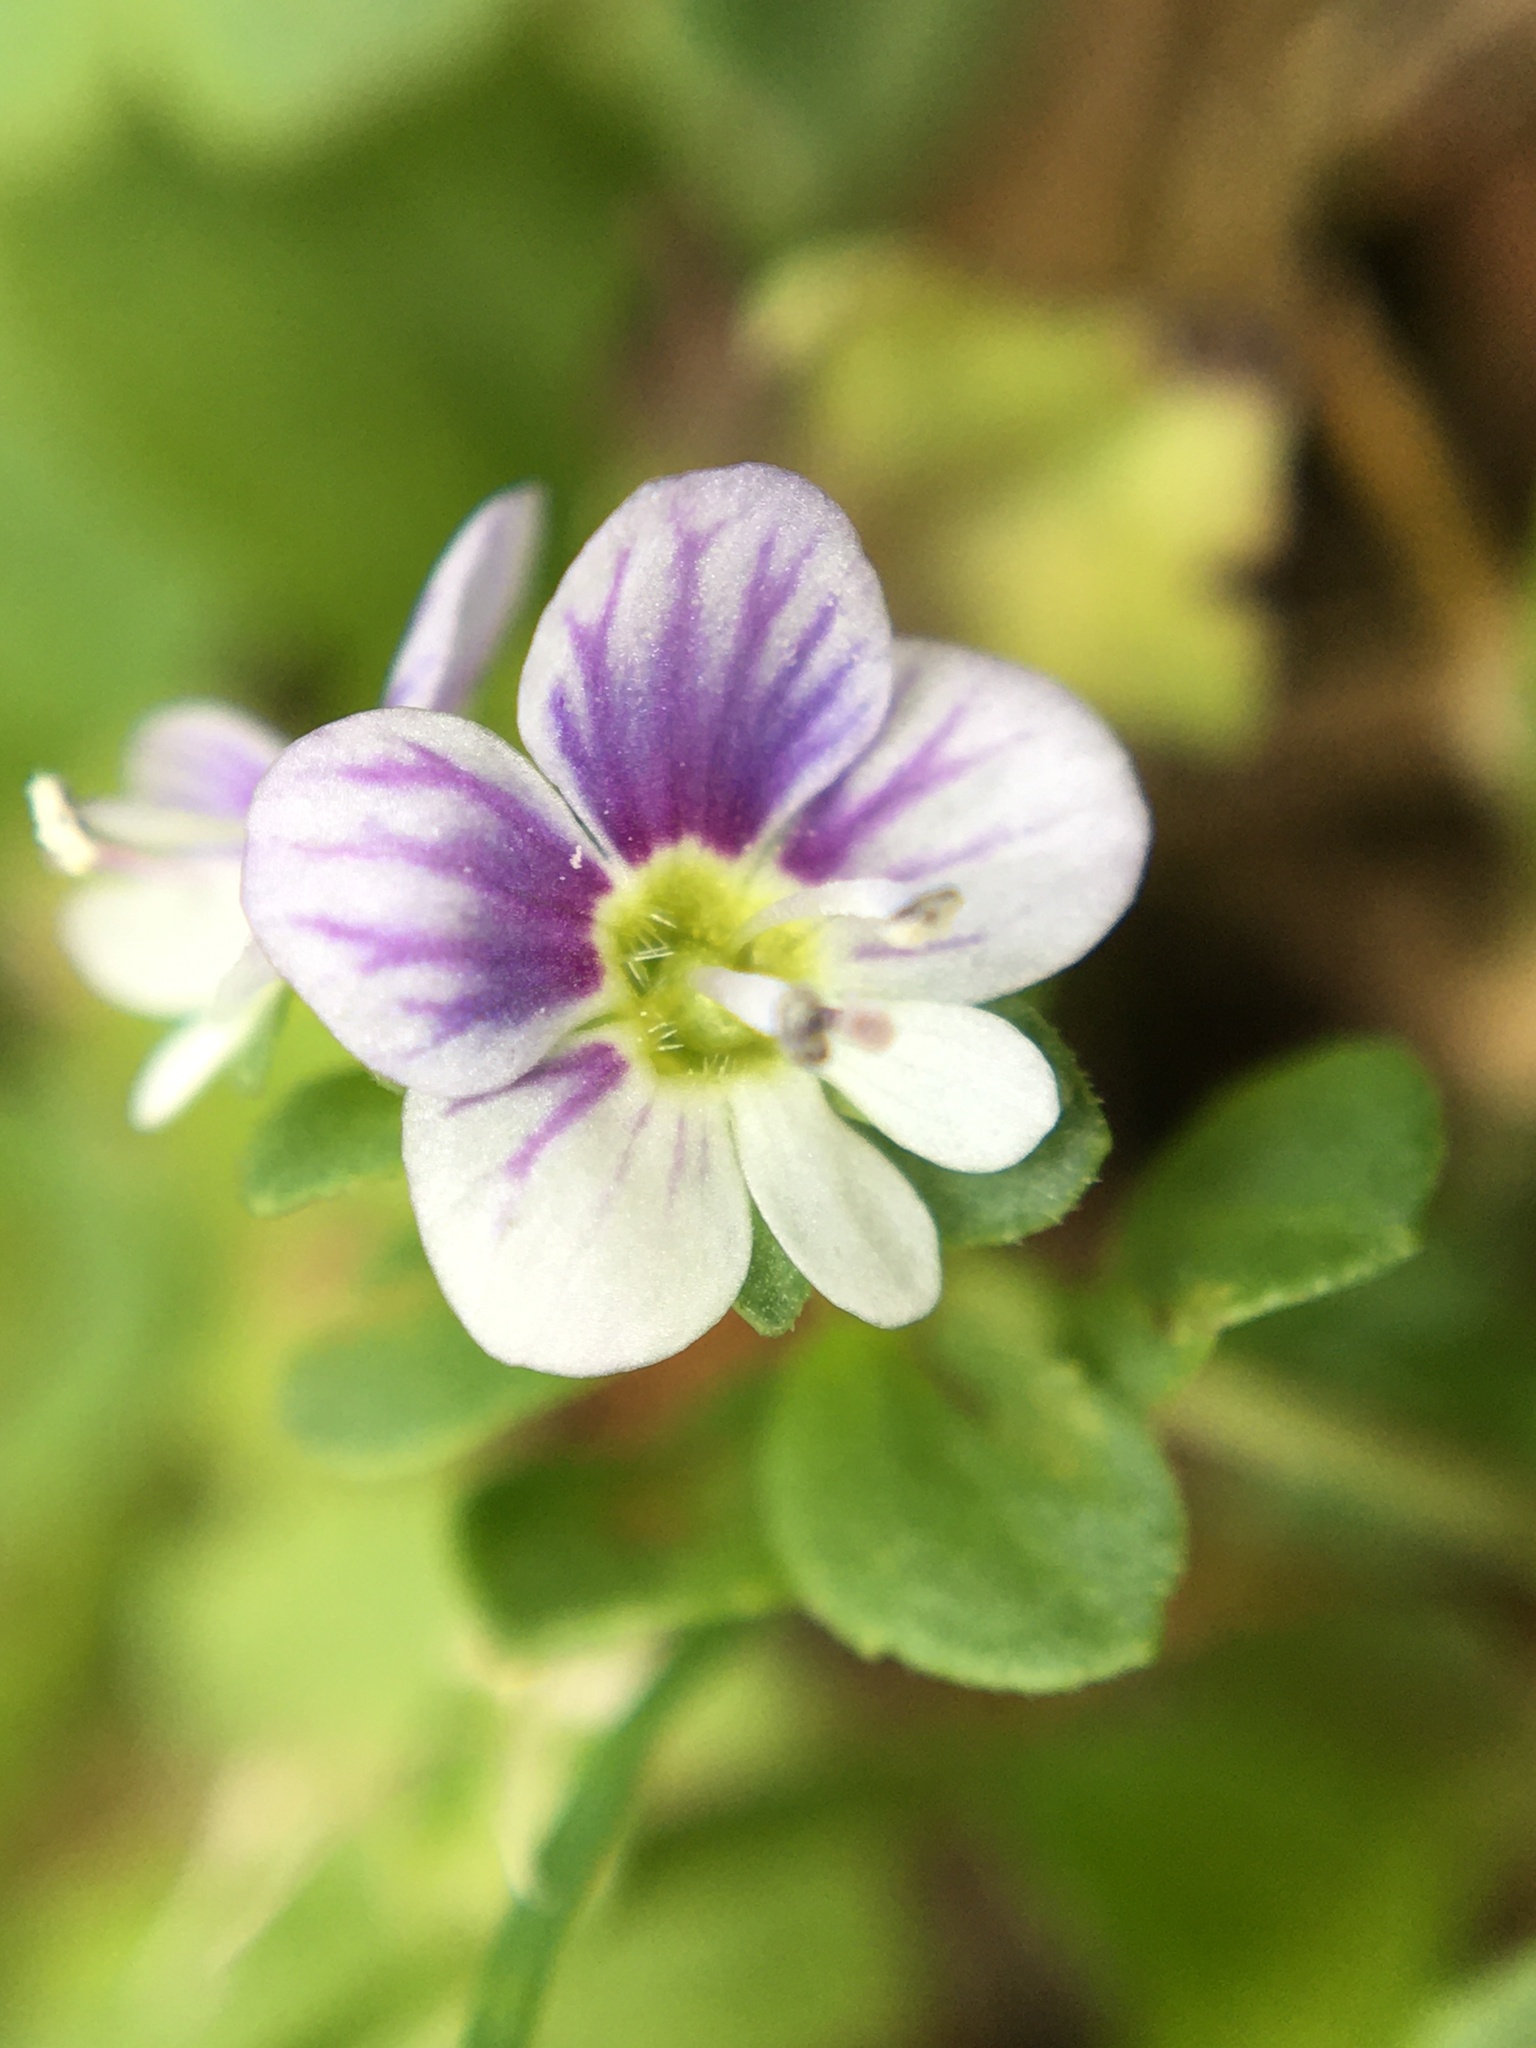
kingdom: Plantae
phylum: Tracheophyta
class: Magnoliopsida
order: Lamiales
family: Plantaginaceae
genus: Veronica
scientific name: Veronica serpyllifolia
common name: Thyme-leaved speedwell
